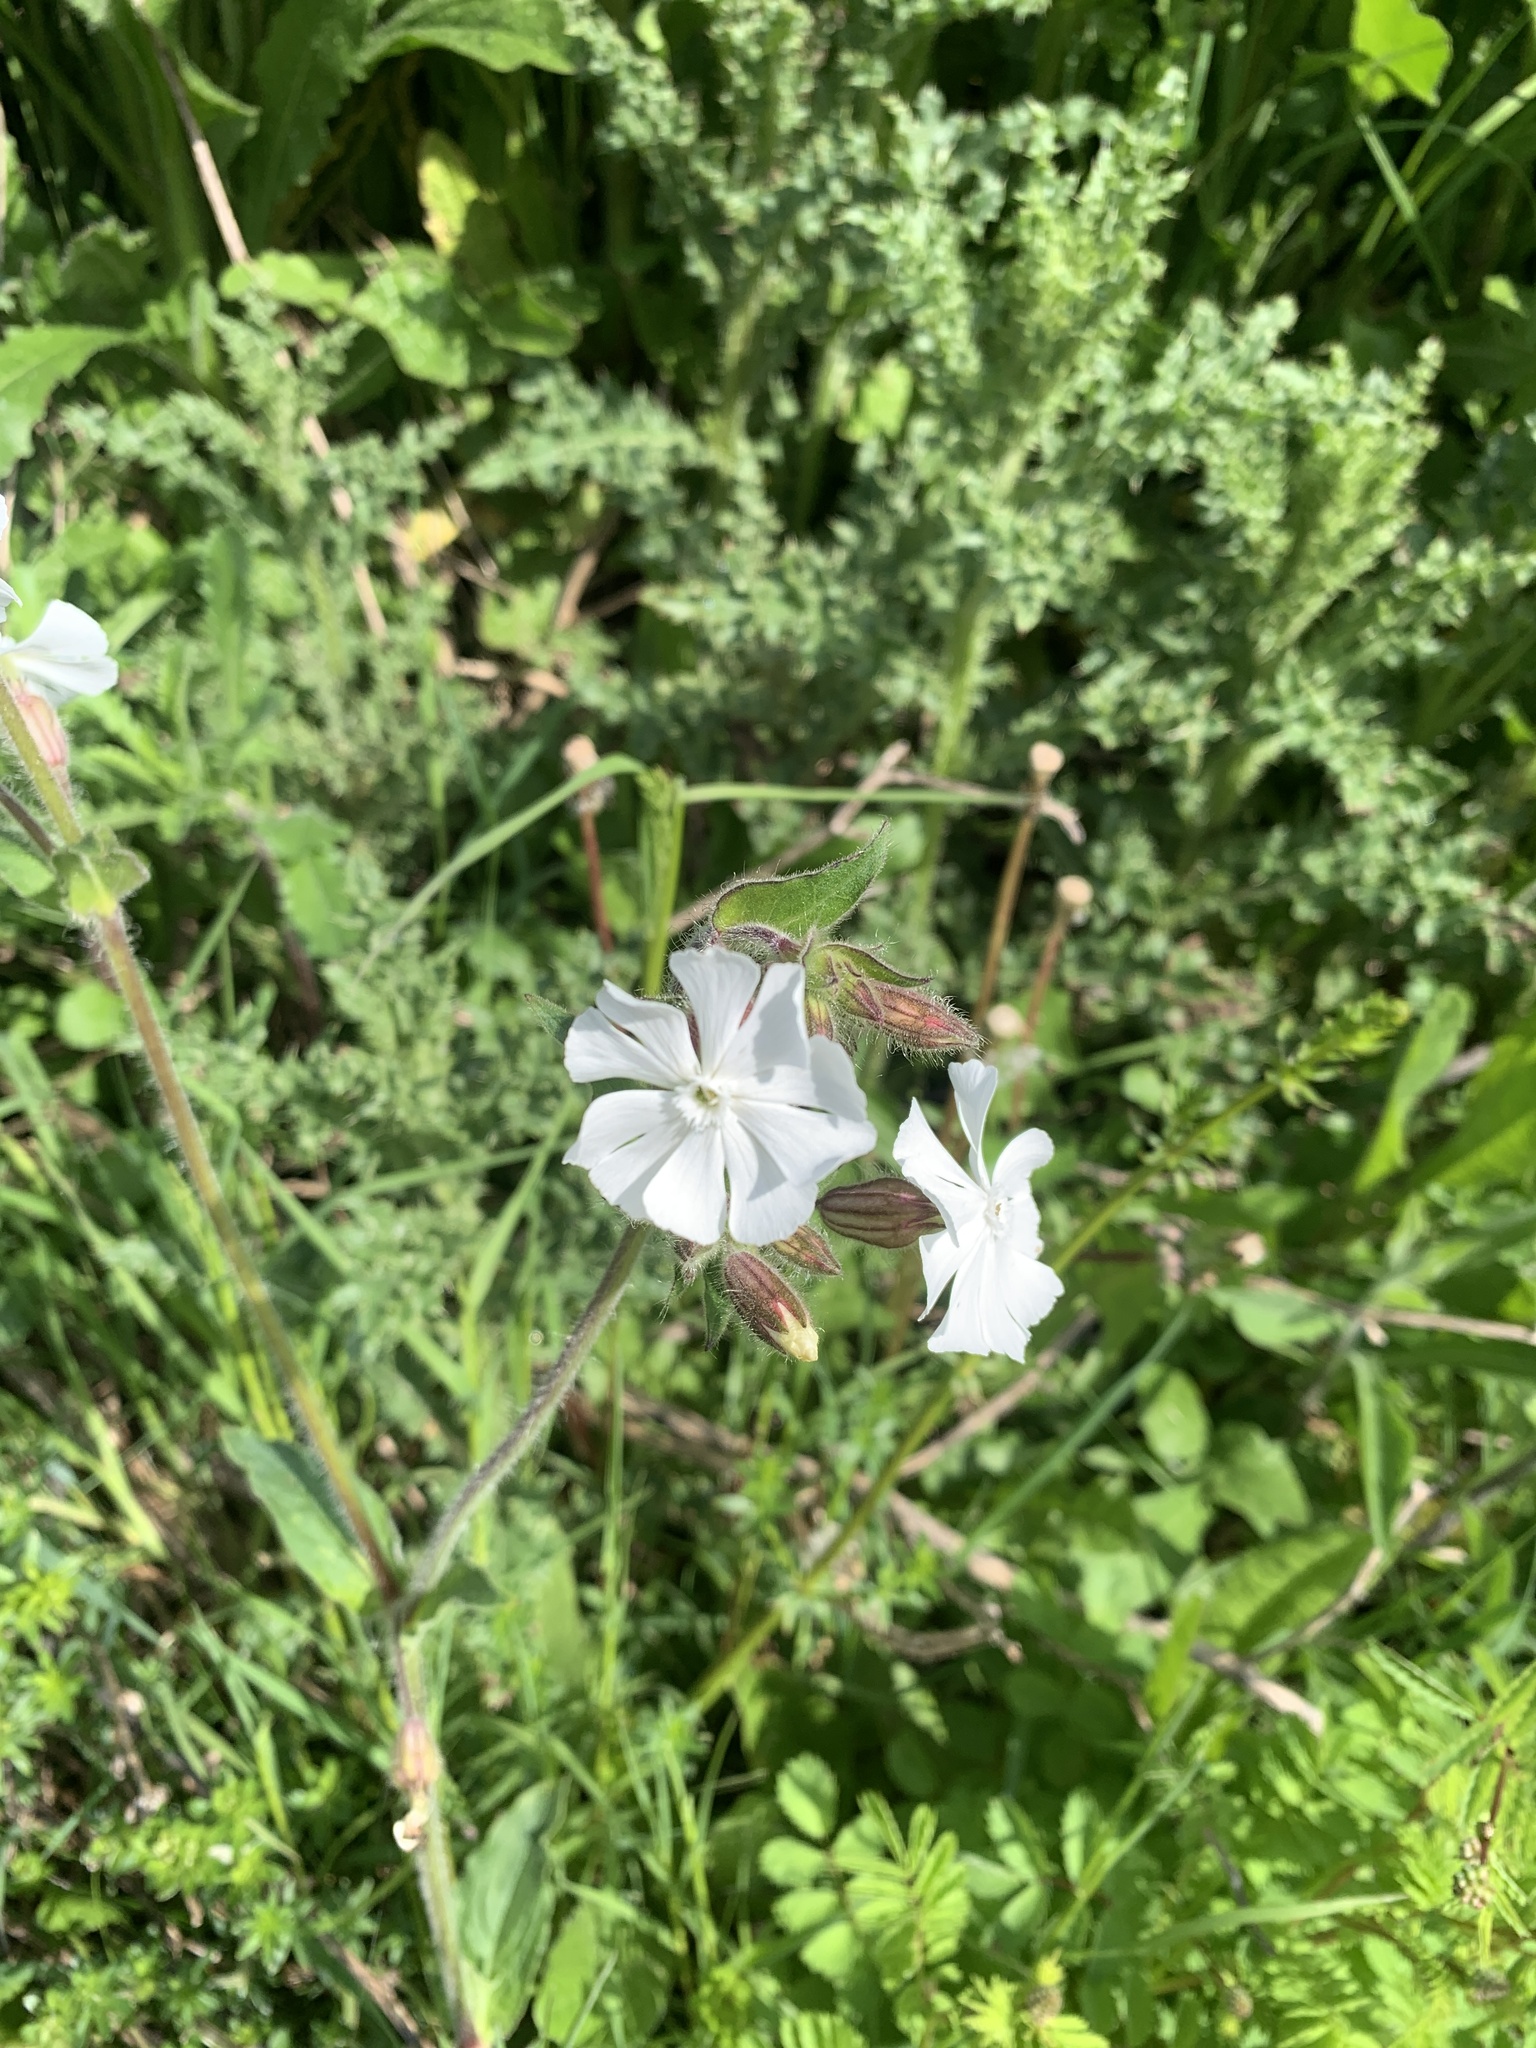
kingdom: Plantae
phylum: Tracheophyta
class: Magnoliopsida
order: Caryophyllales
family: Caryophyllaceae
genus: Silene
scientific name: Silene latifolia
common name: White campion
